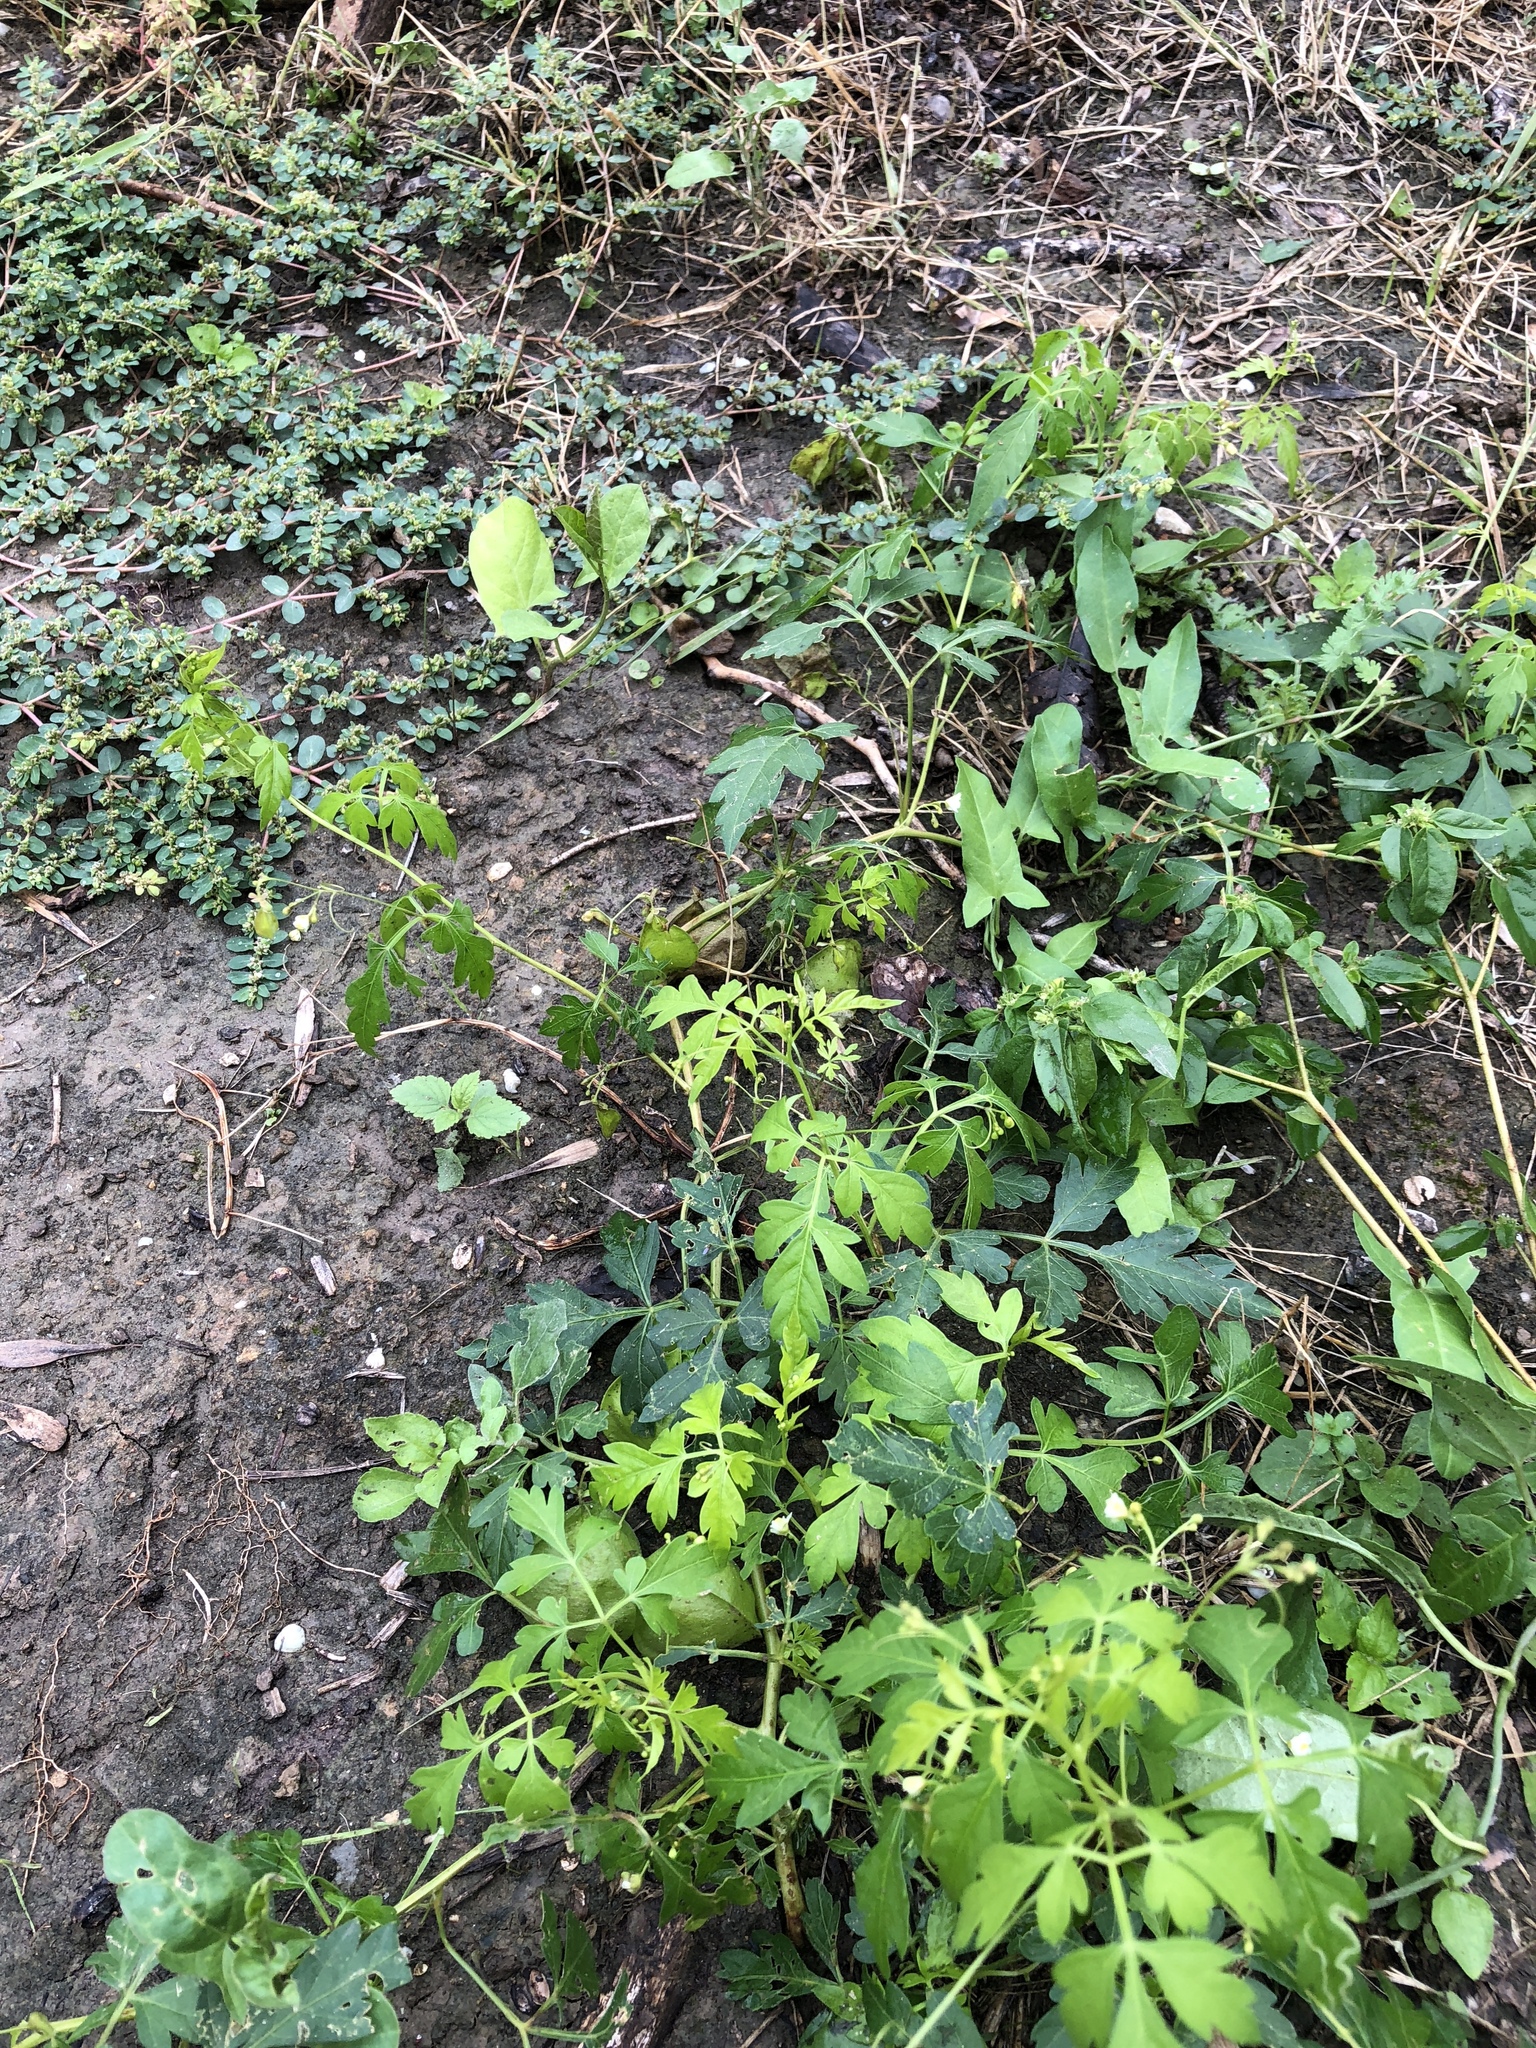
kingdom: Plantae
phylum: Tracheophyta
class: Magnoliopsida
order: Sapindales
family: Sapindaceae
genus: Cardiospermum
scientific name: Cardiospermum halicacabum
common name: Balloon vine
